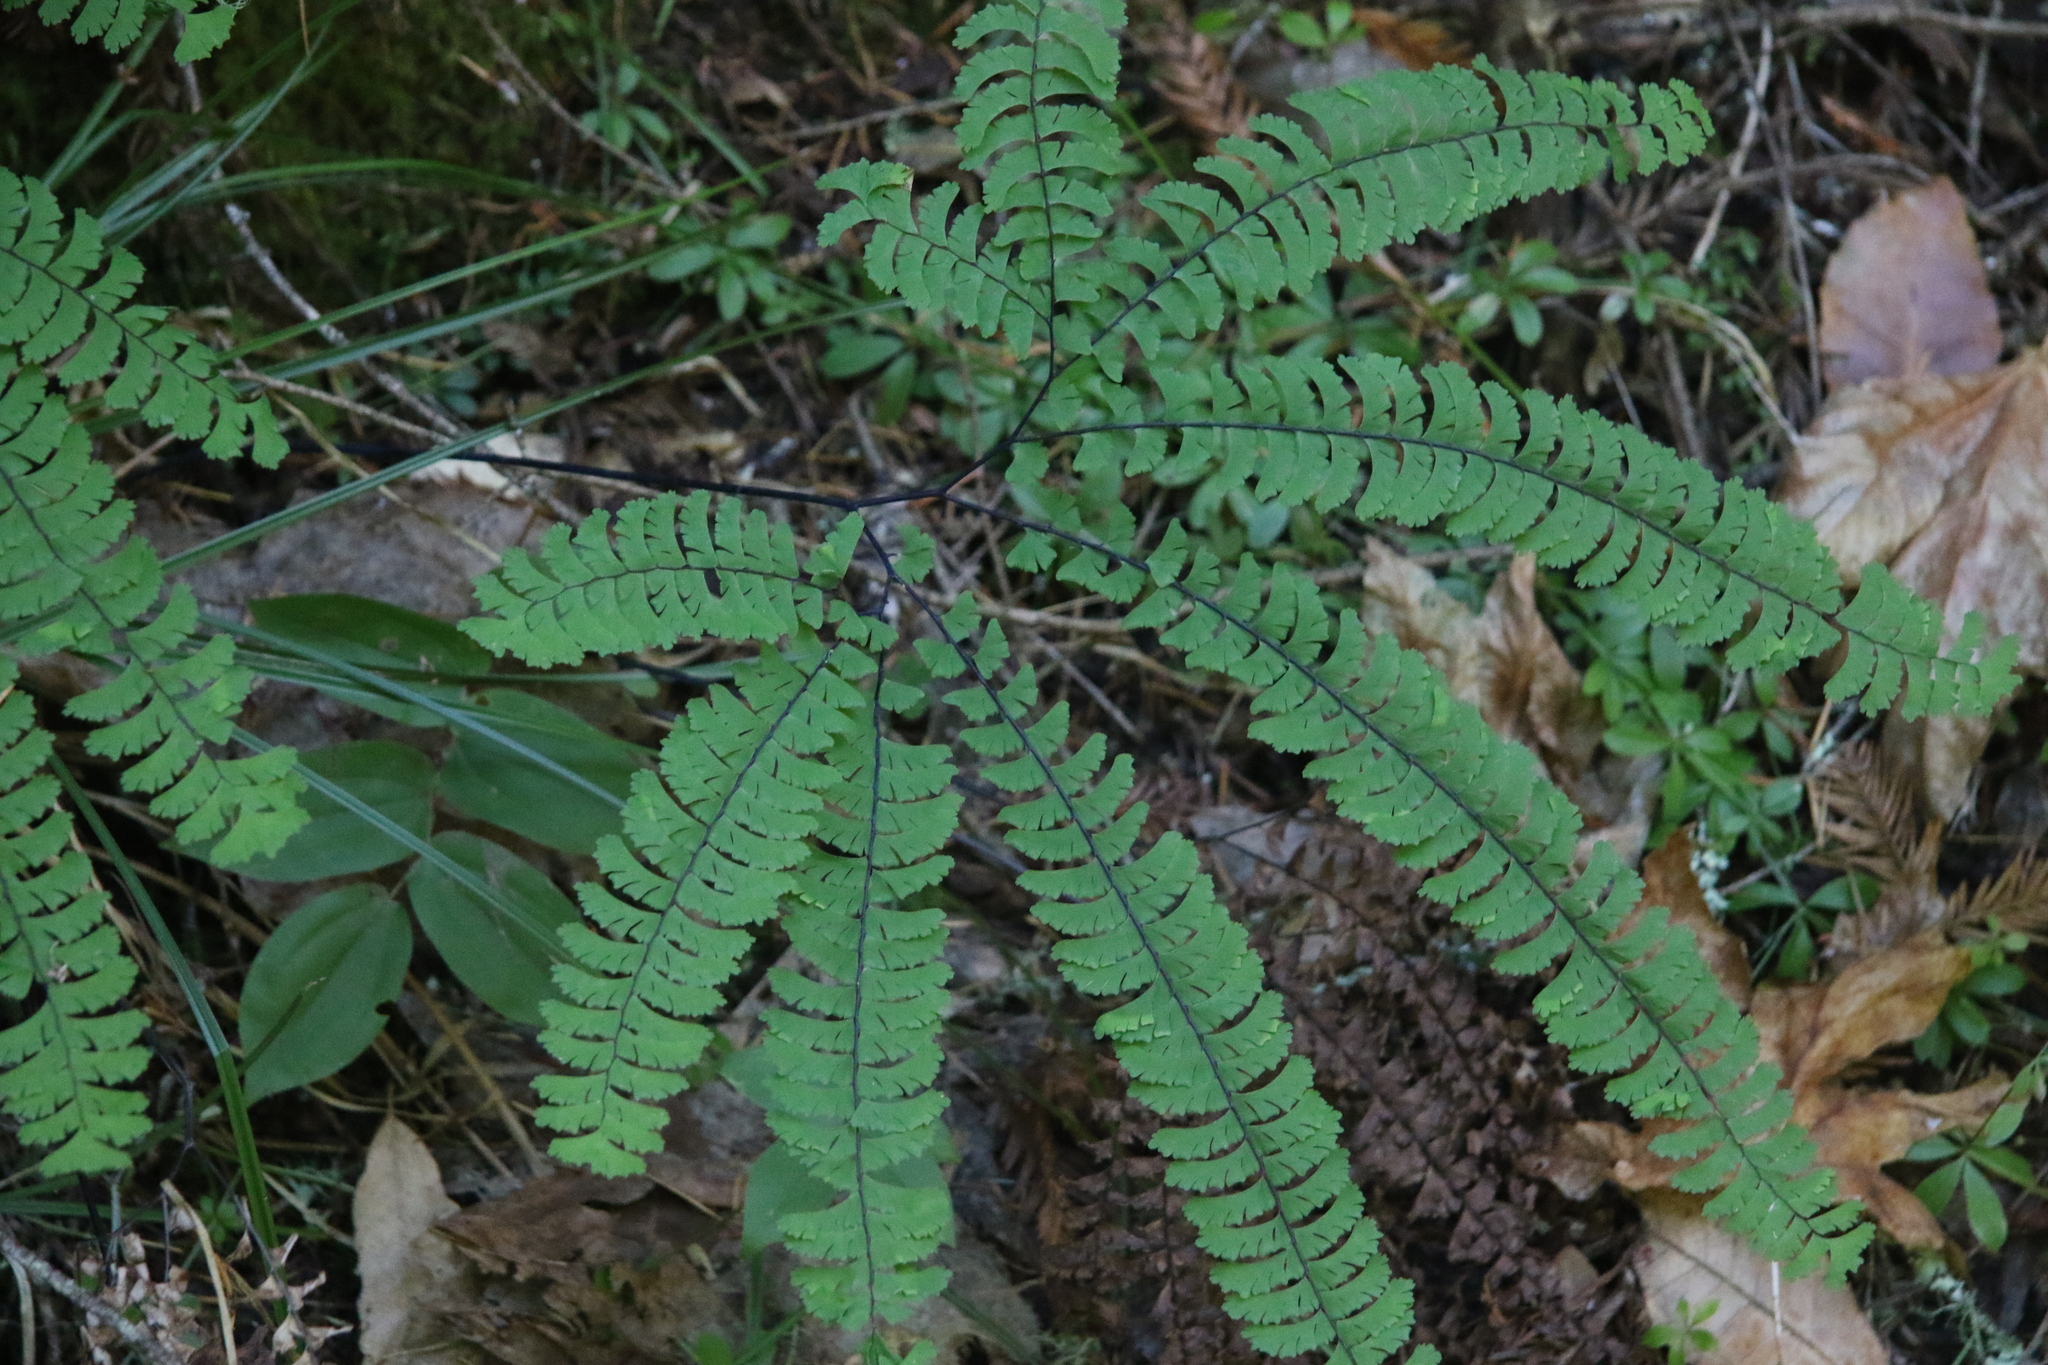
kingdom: Plantae
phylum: Tracheophyta
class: Polypodiopsida
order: Polypodiales
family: Pteridaceae
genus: Adiantum
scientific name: Adiantum aleuticum
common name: Aleutian maidenhair fern
